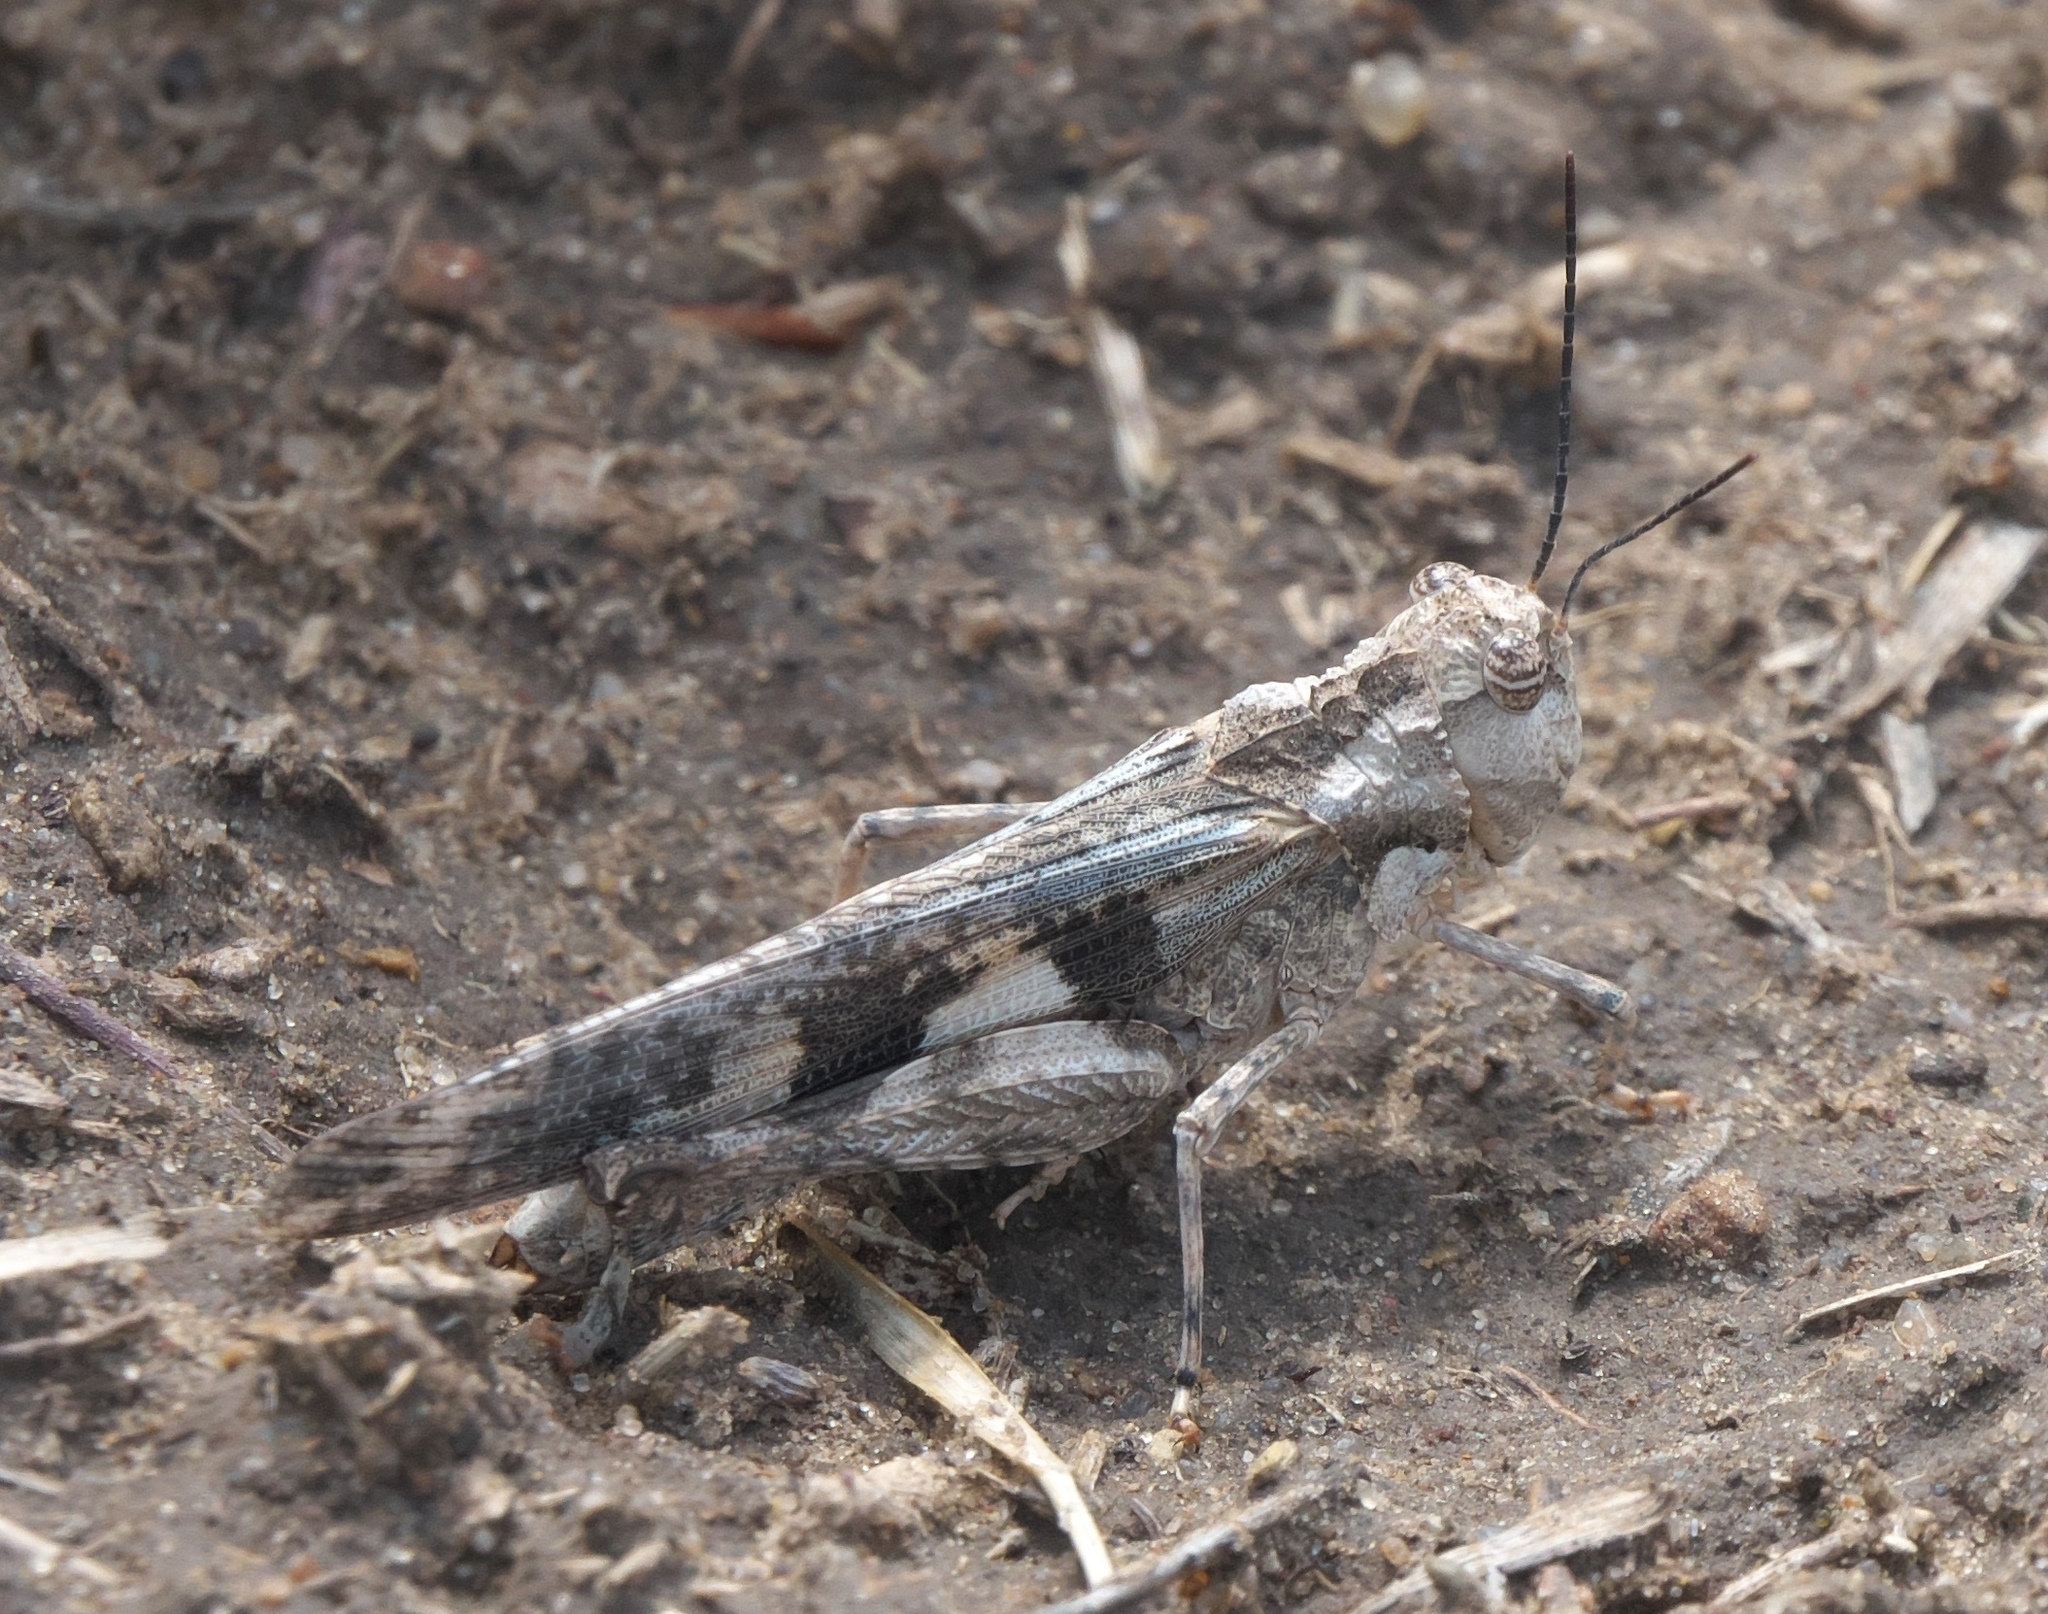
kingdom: Animalia
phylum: Arthropoda
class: Insecta
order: Orthoptera
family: Acrididae
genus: Mestobregma
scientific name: Mestobregma plattei
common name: Platte range grasshopper
